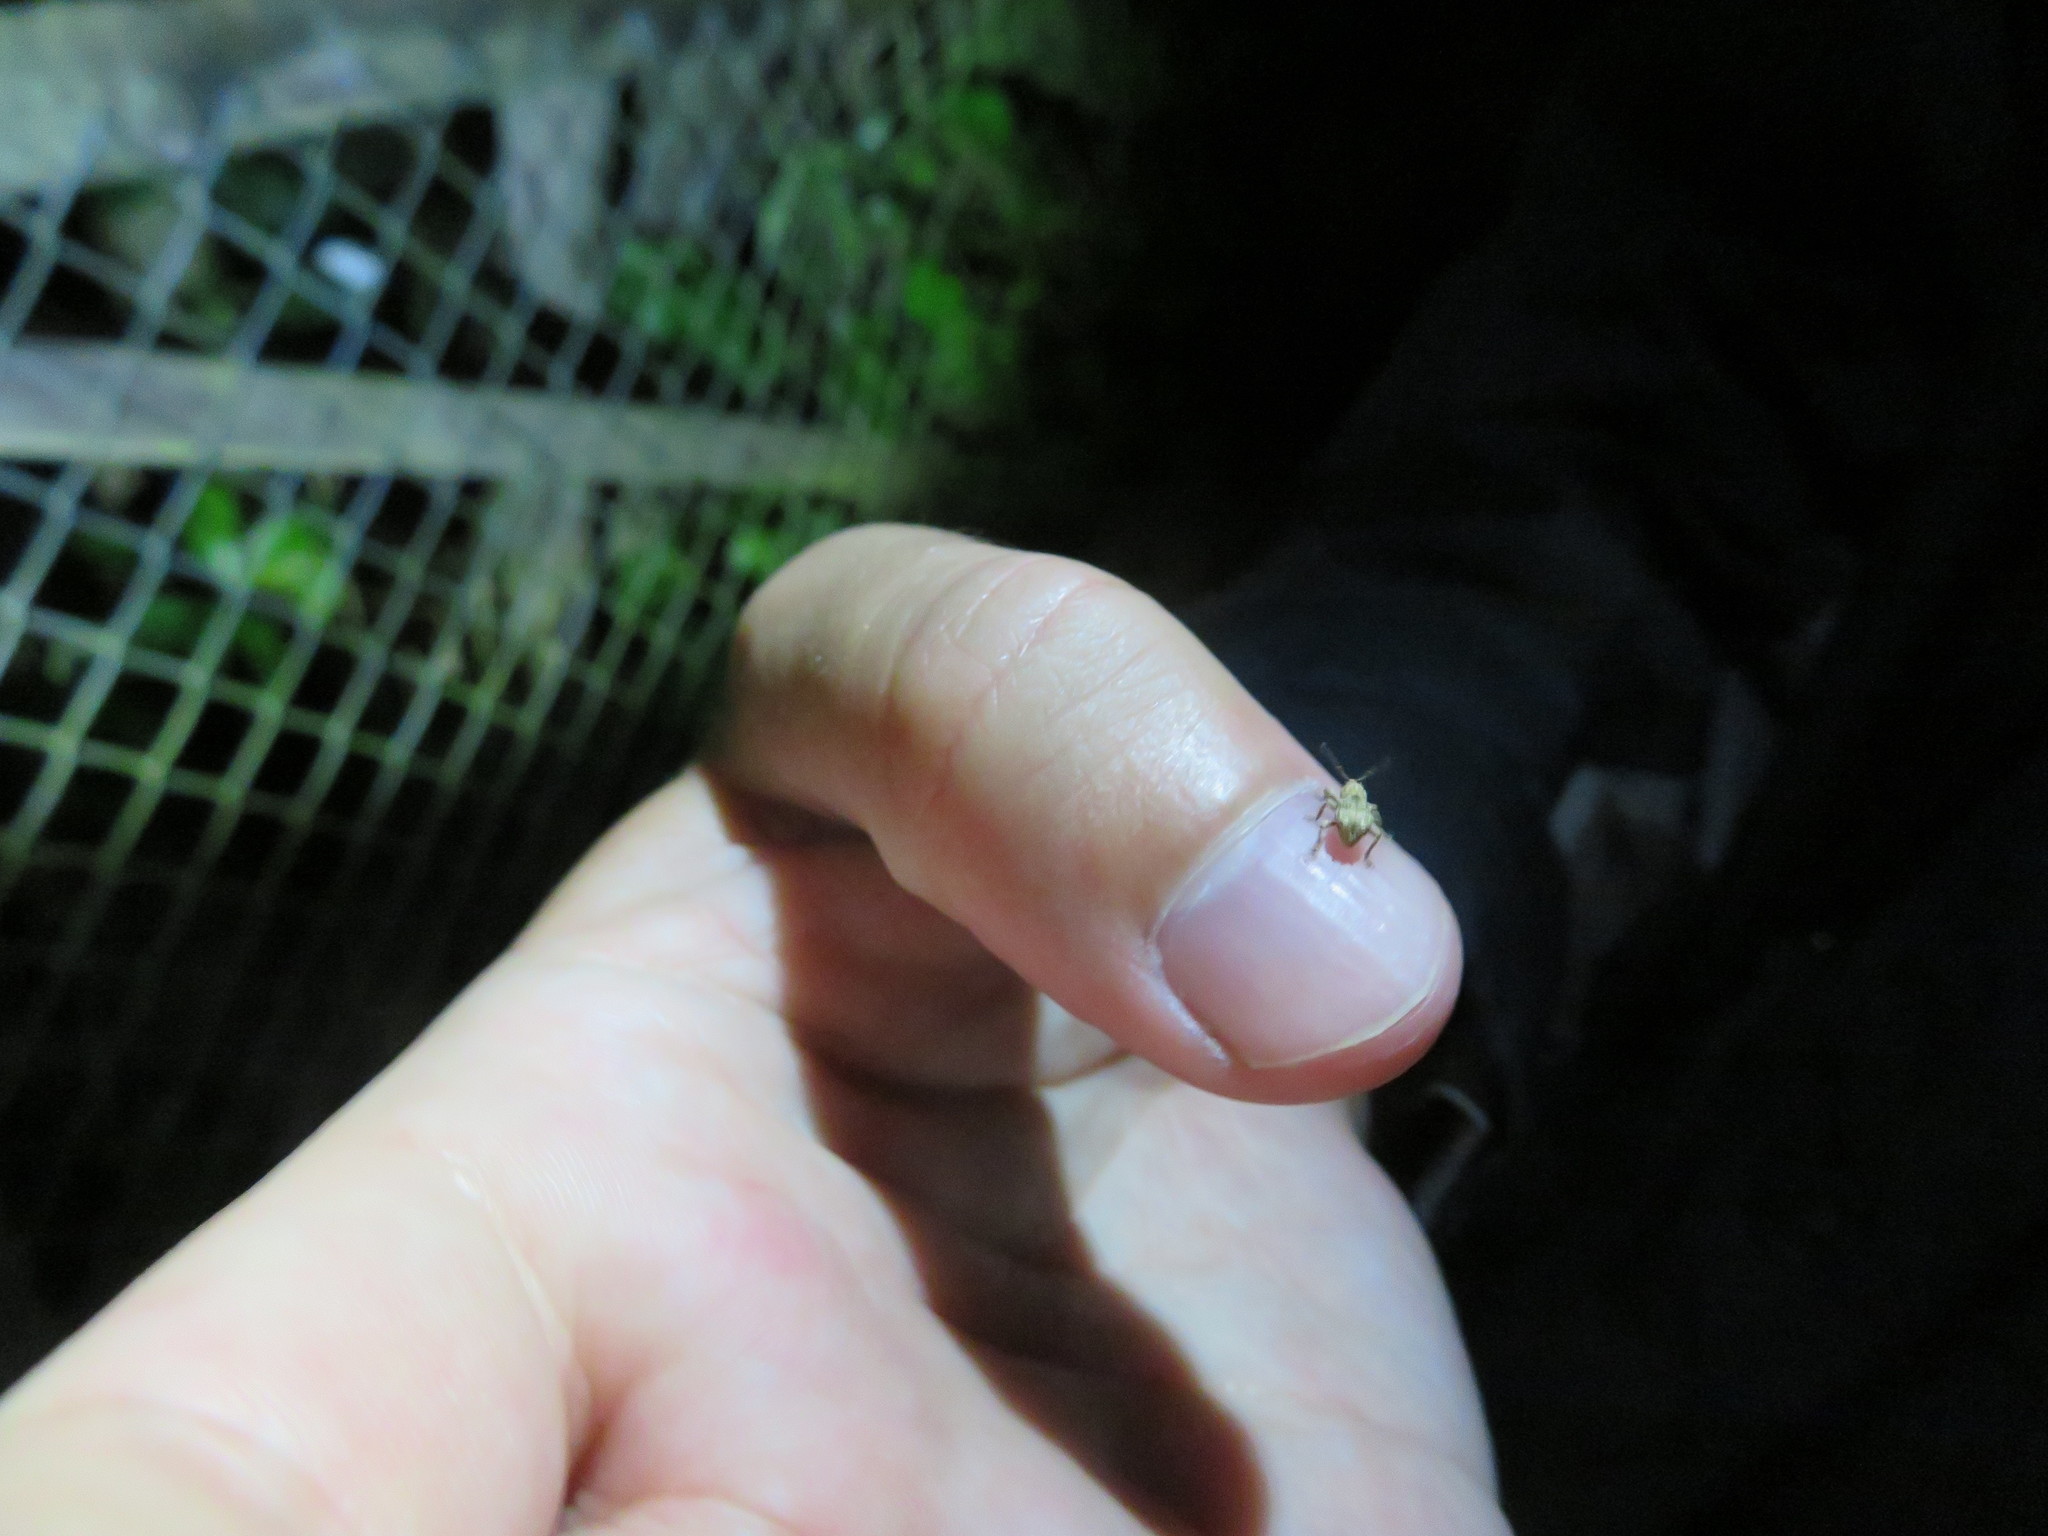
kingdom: Animalia
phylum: Arthropoda
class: Insecta
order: Coleoptera
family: Curculionidae
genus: Brachyolus
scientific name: Brachyolus punctatus
